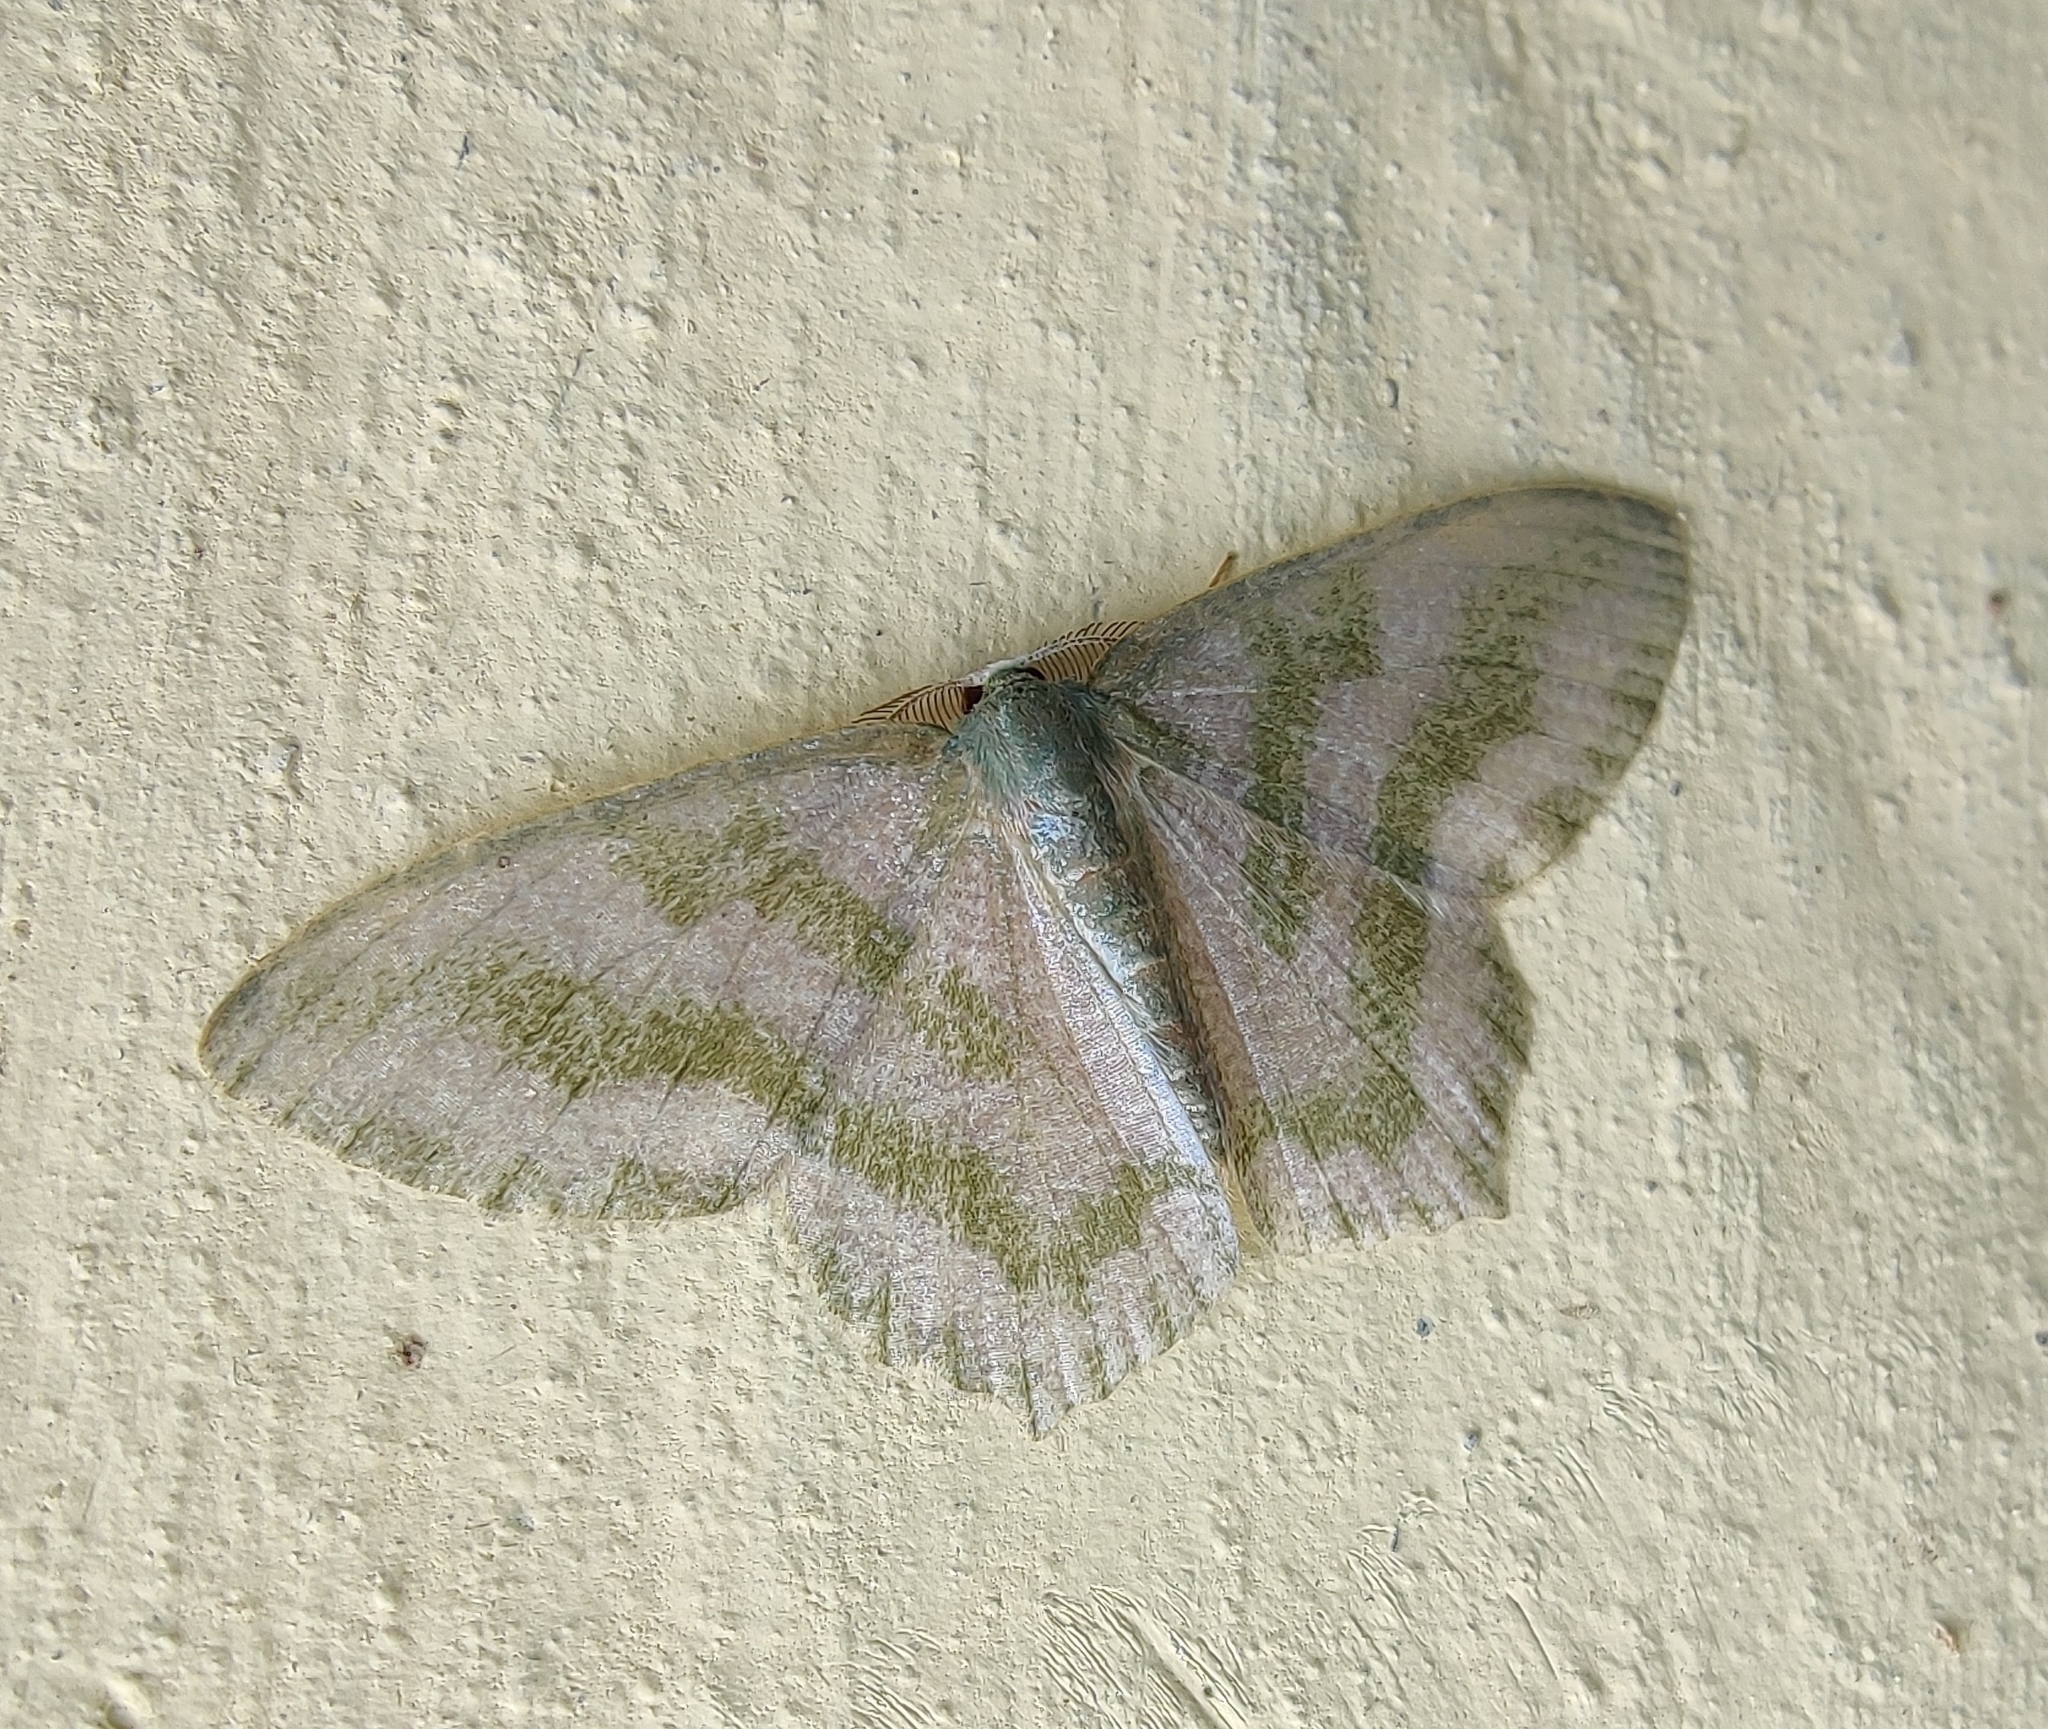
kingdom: Animalia
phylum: Arthropoda
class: Insecta
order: Lepidoptera
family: Geometridae
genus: Maxates
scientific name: Maxates thetydaria
